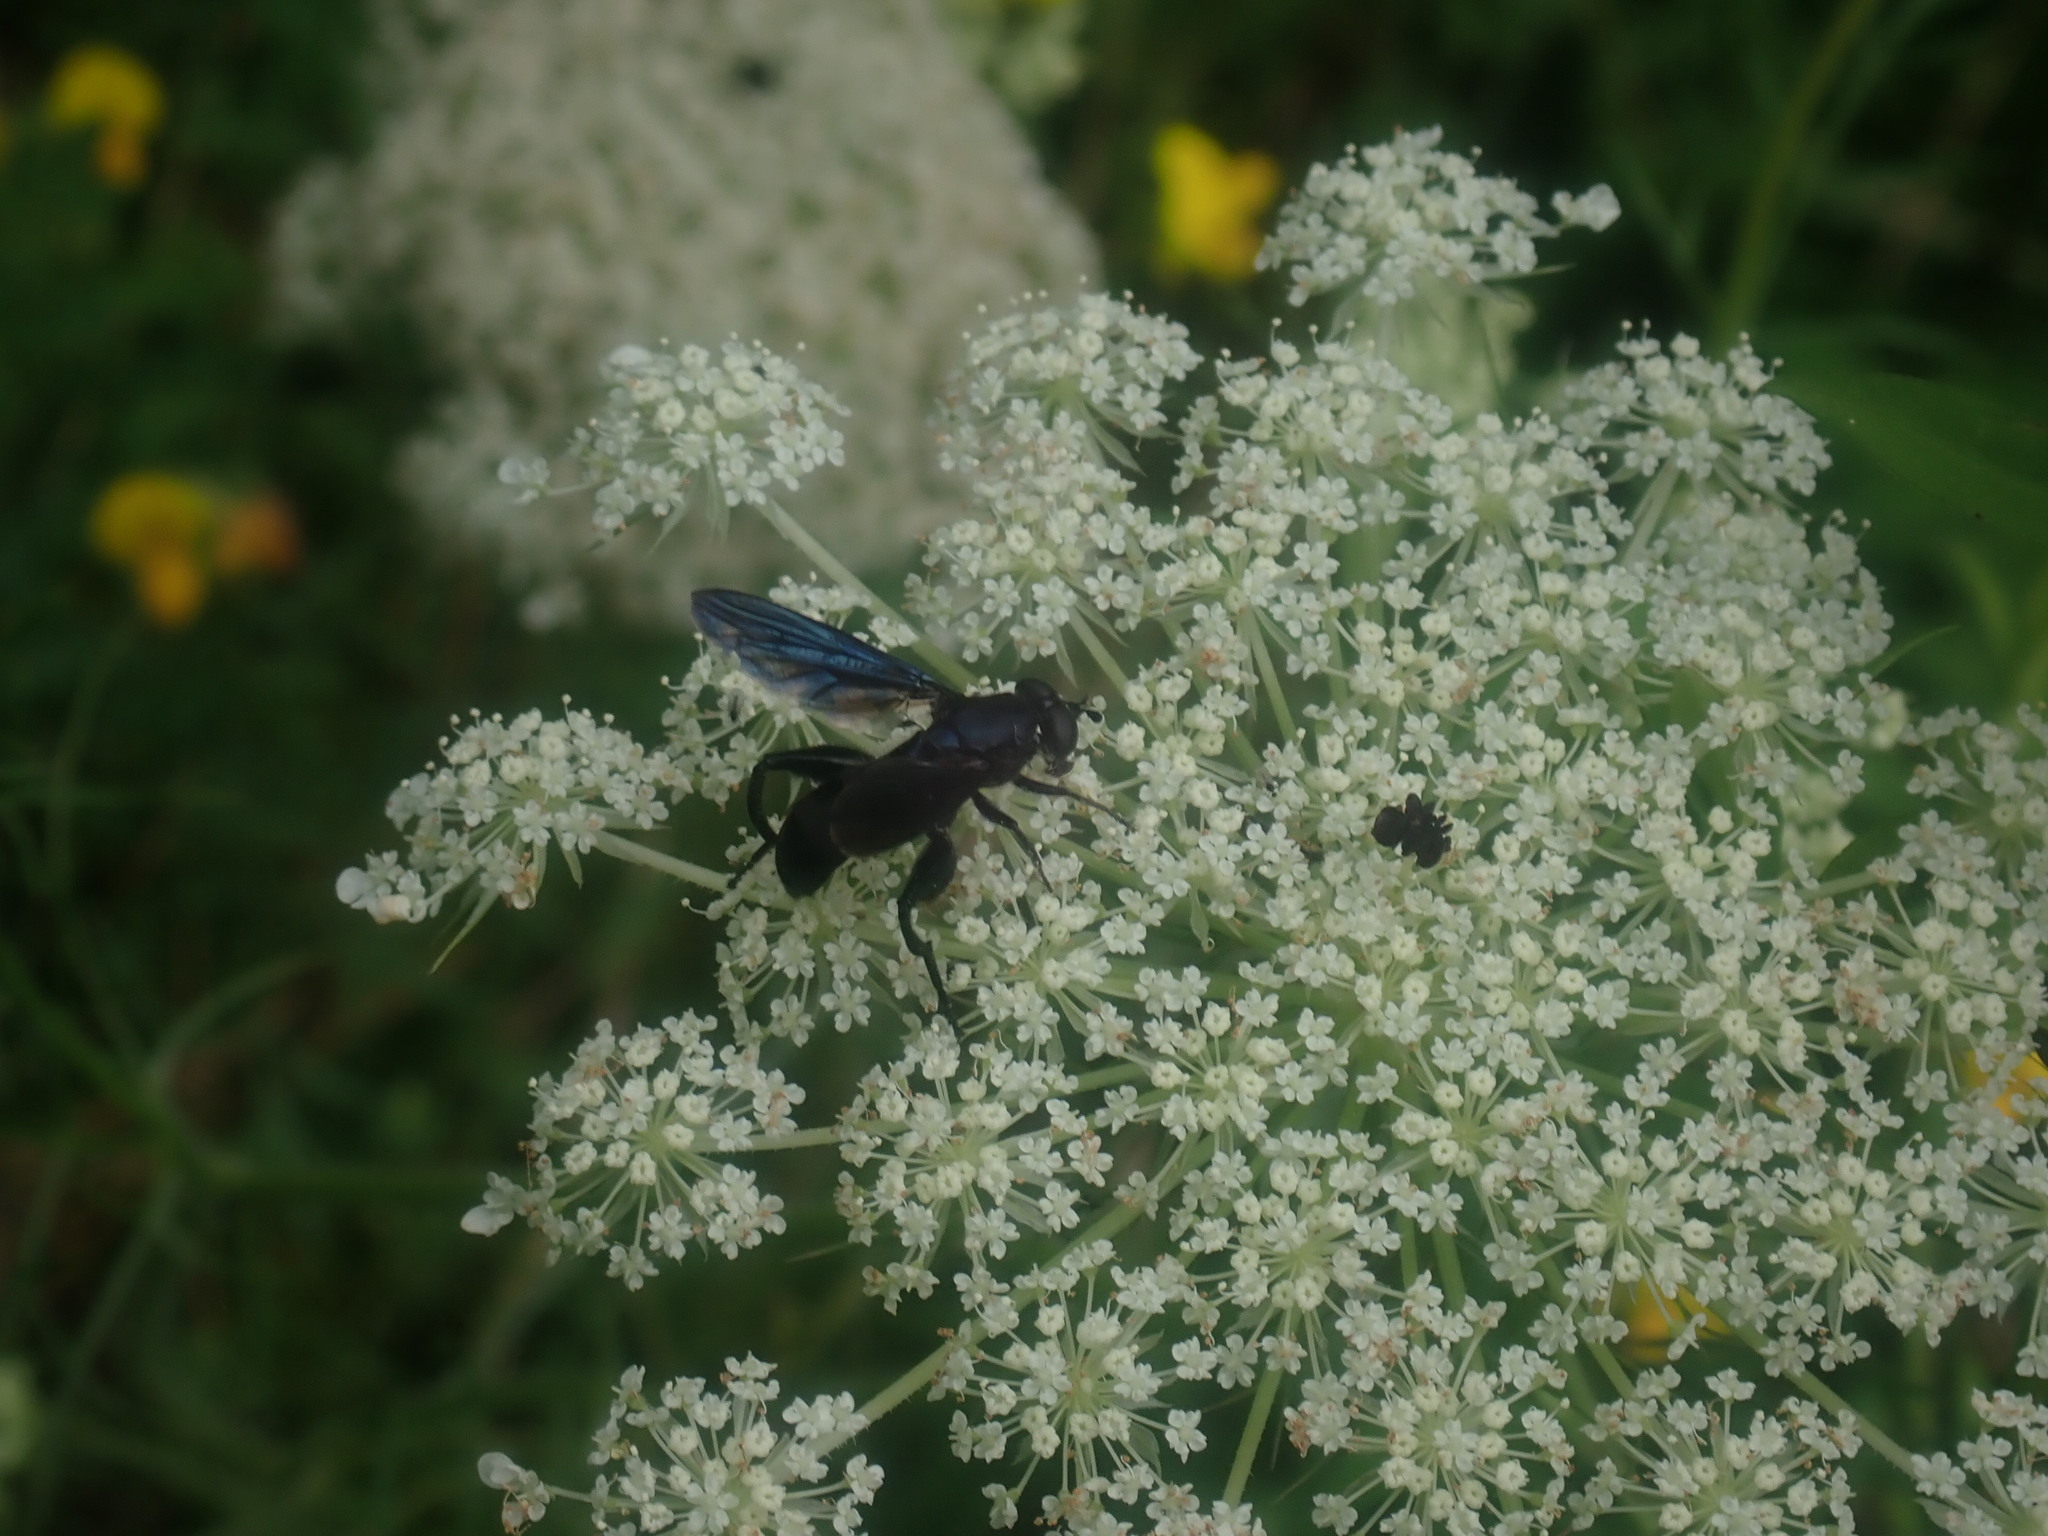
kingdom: Animalia
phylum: Arthropoda
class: Insecta
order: Diptera
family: Syrphidae
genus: Chalcosyrphus
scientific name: Chalcosyrphus chalybeus
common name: Violet leafwalker
